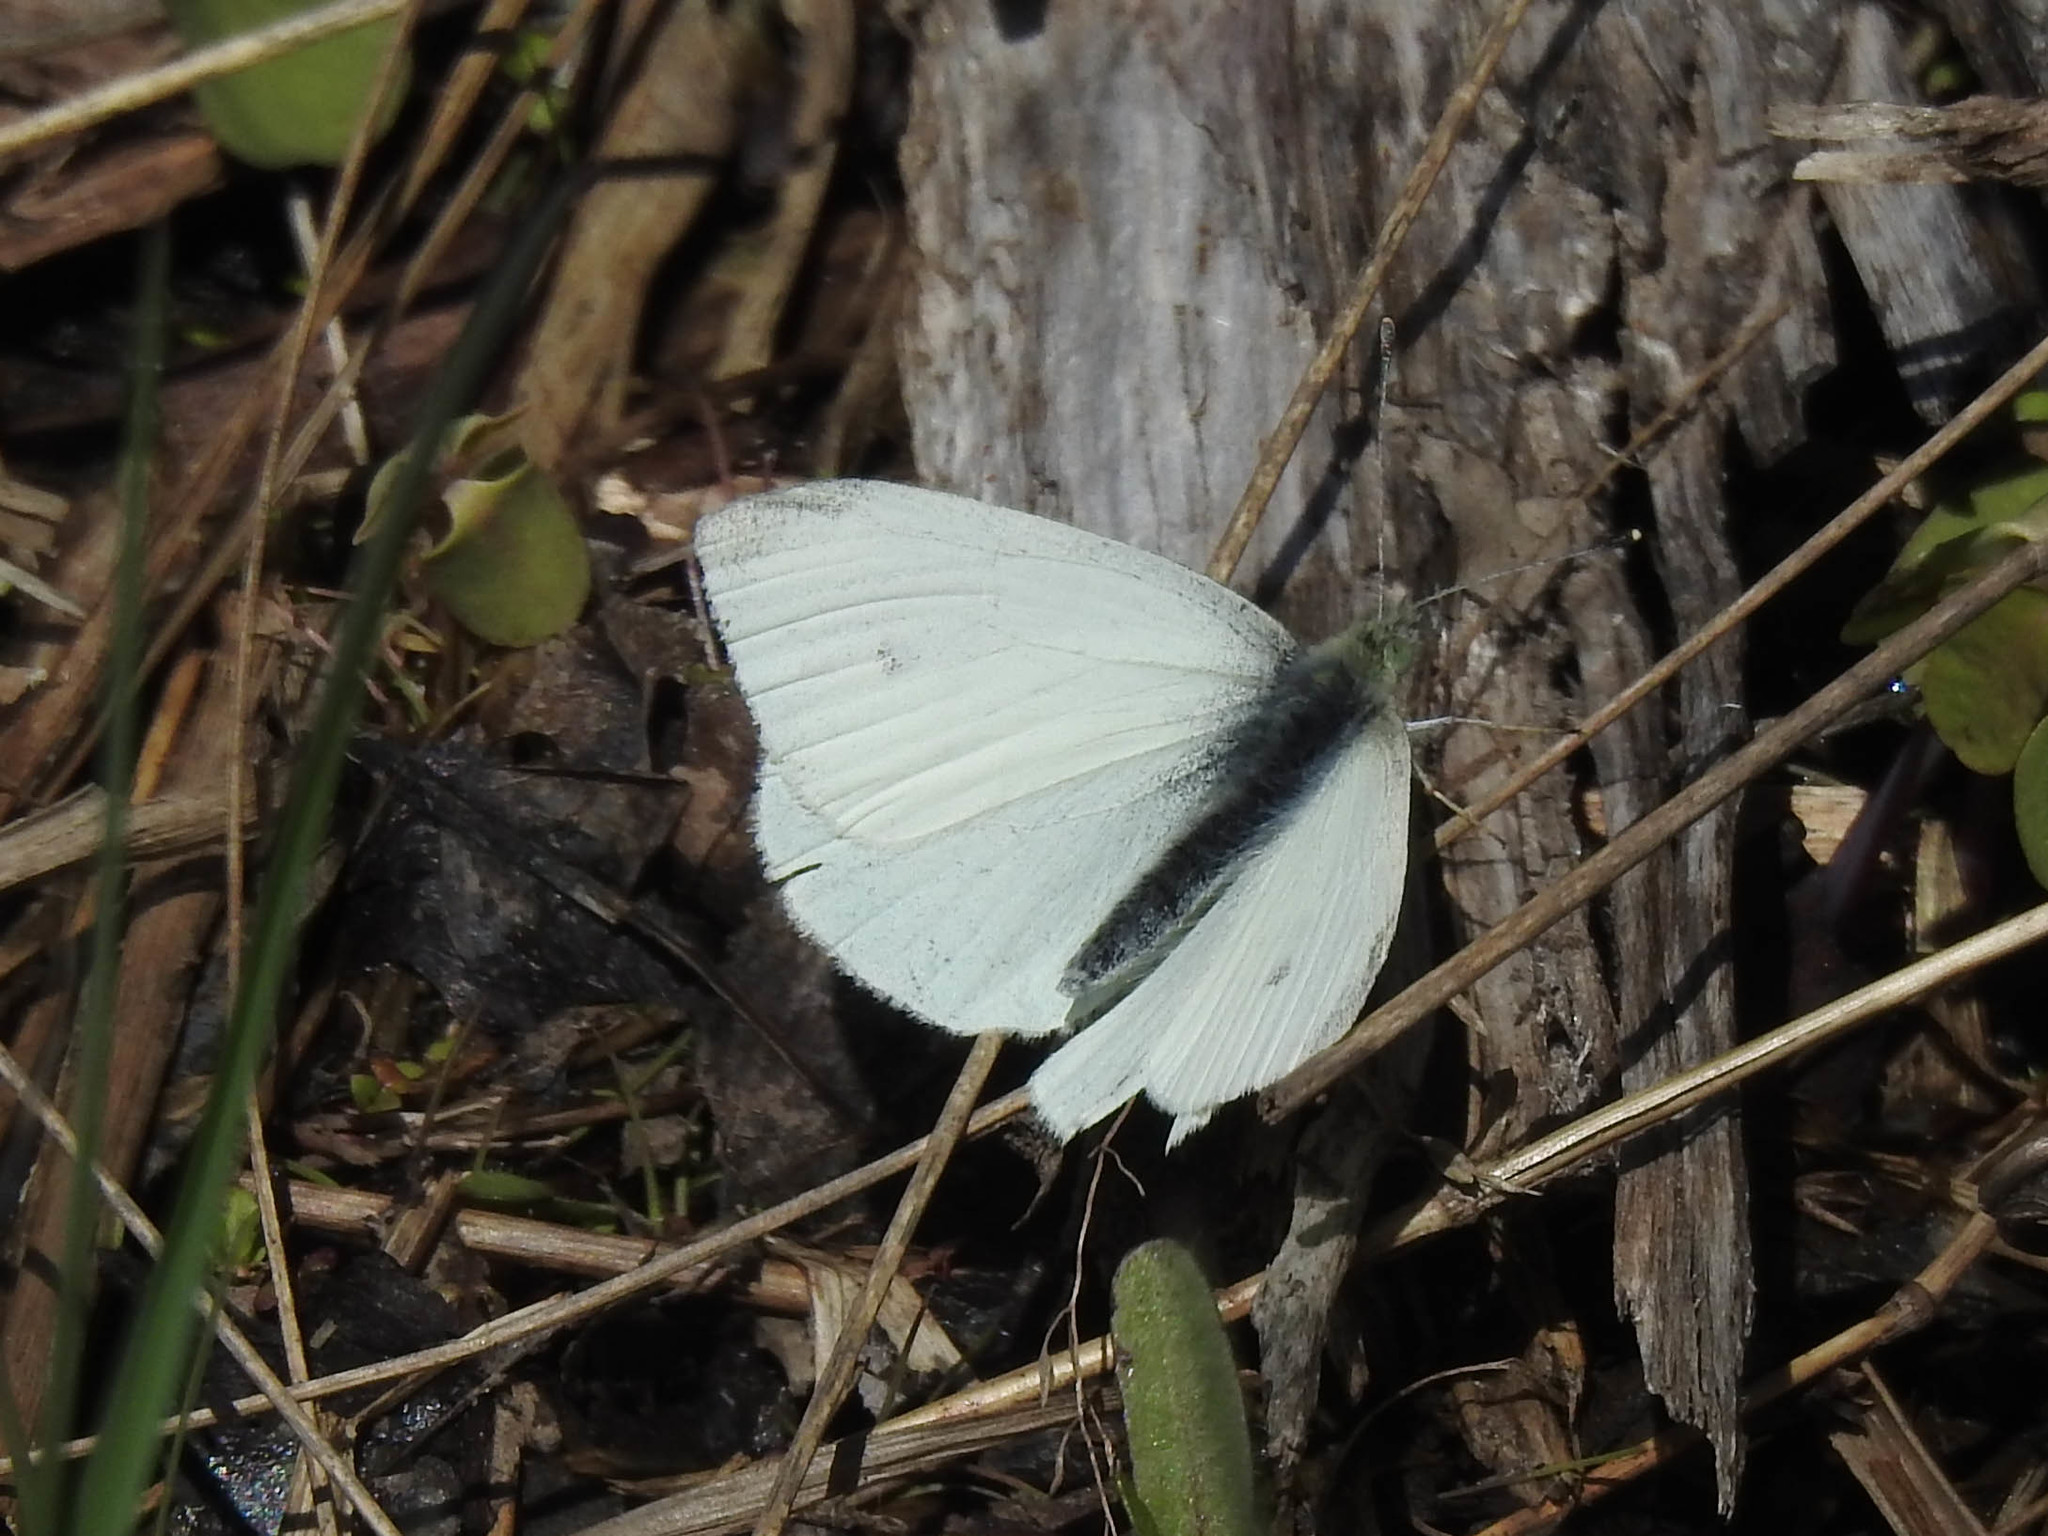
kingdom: Animalia
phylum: Arthropoda
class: Insecta
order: Lepidoptera
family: Pieridae
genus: Pieris
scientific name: Pieris rapae
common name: Small white
